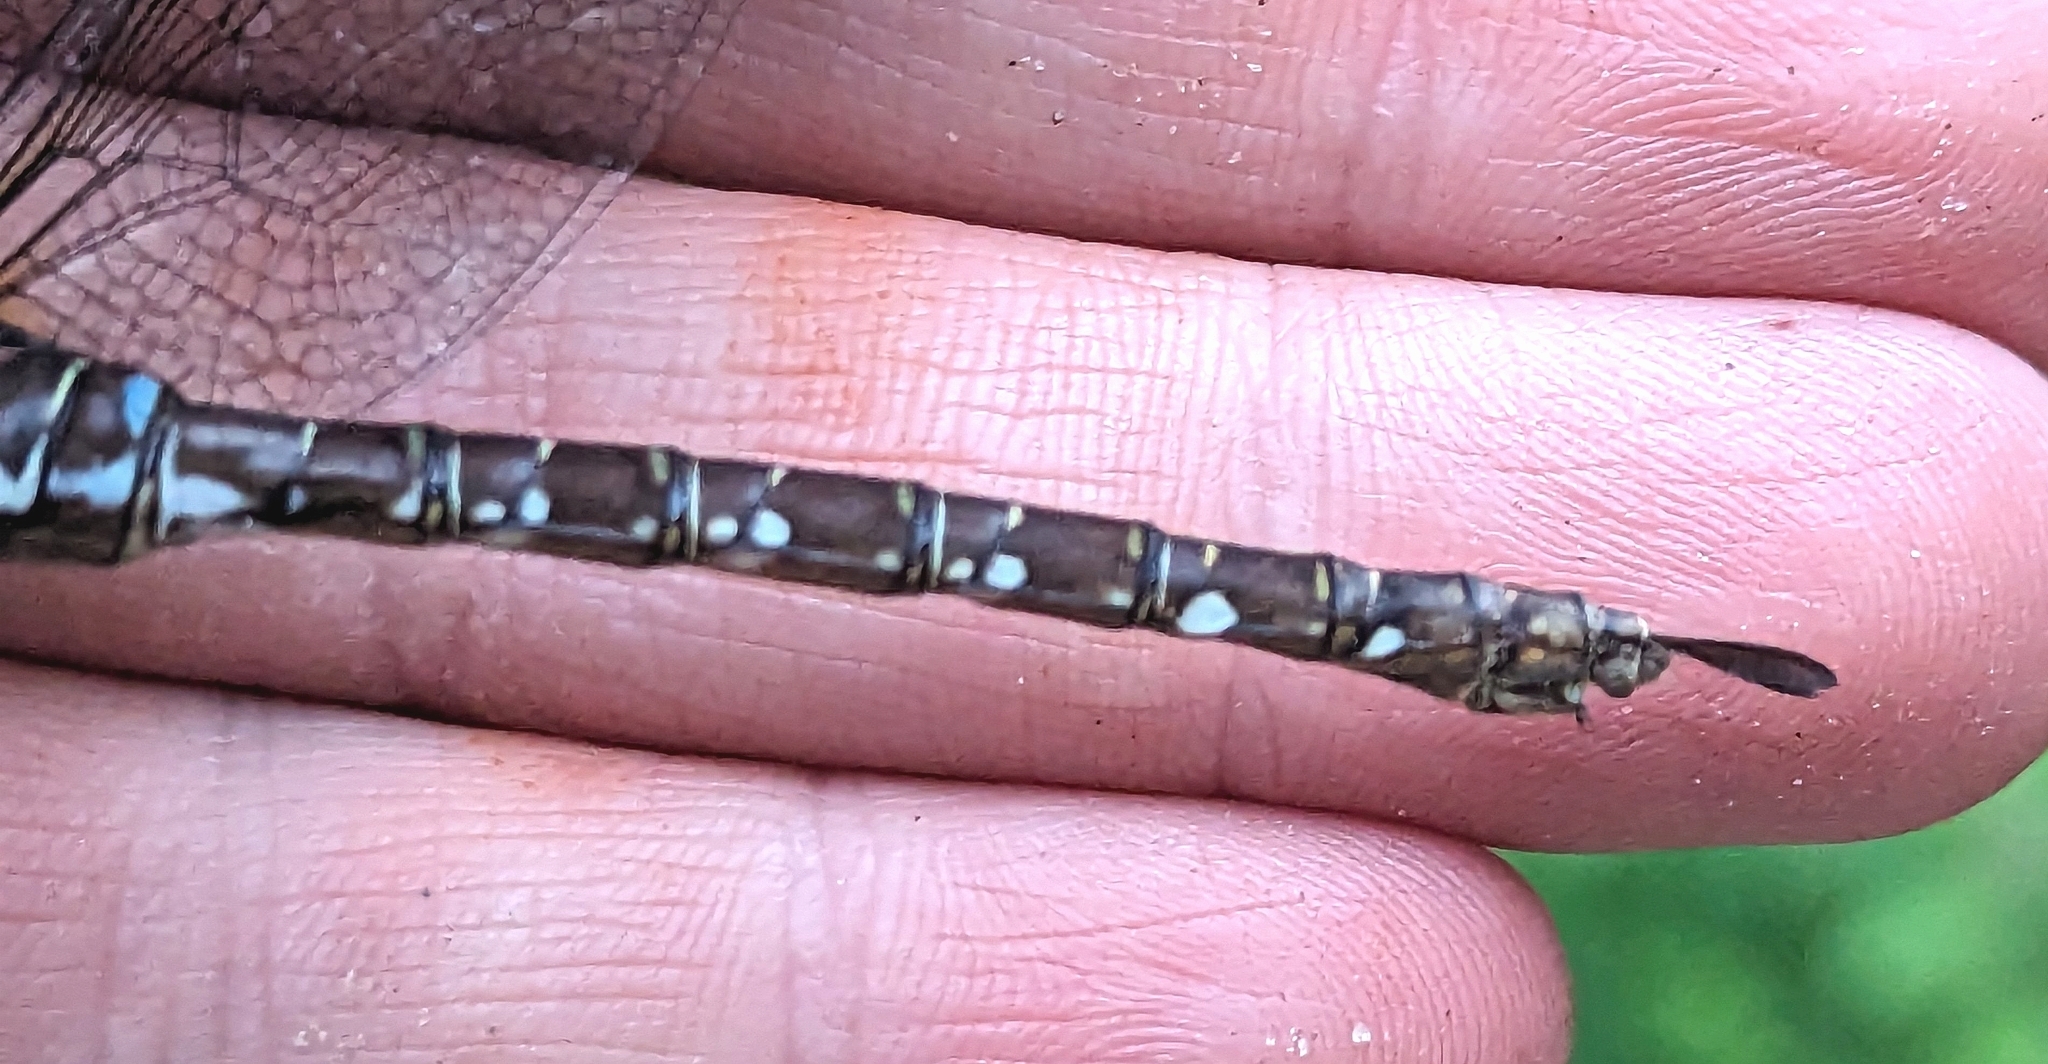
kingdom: Animalia
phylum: Arthropoda
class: Insecta
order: Odonata
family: Aeshnidae
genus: Aeshna
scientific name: Aeshna umbrosa
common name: Shadow darner
